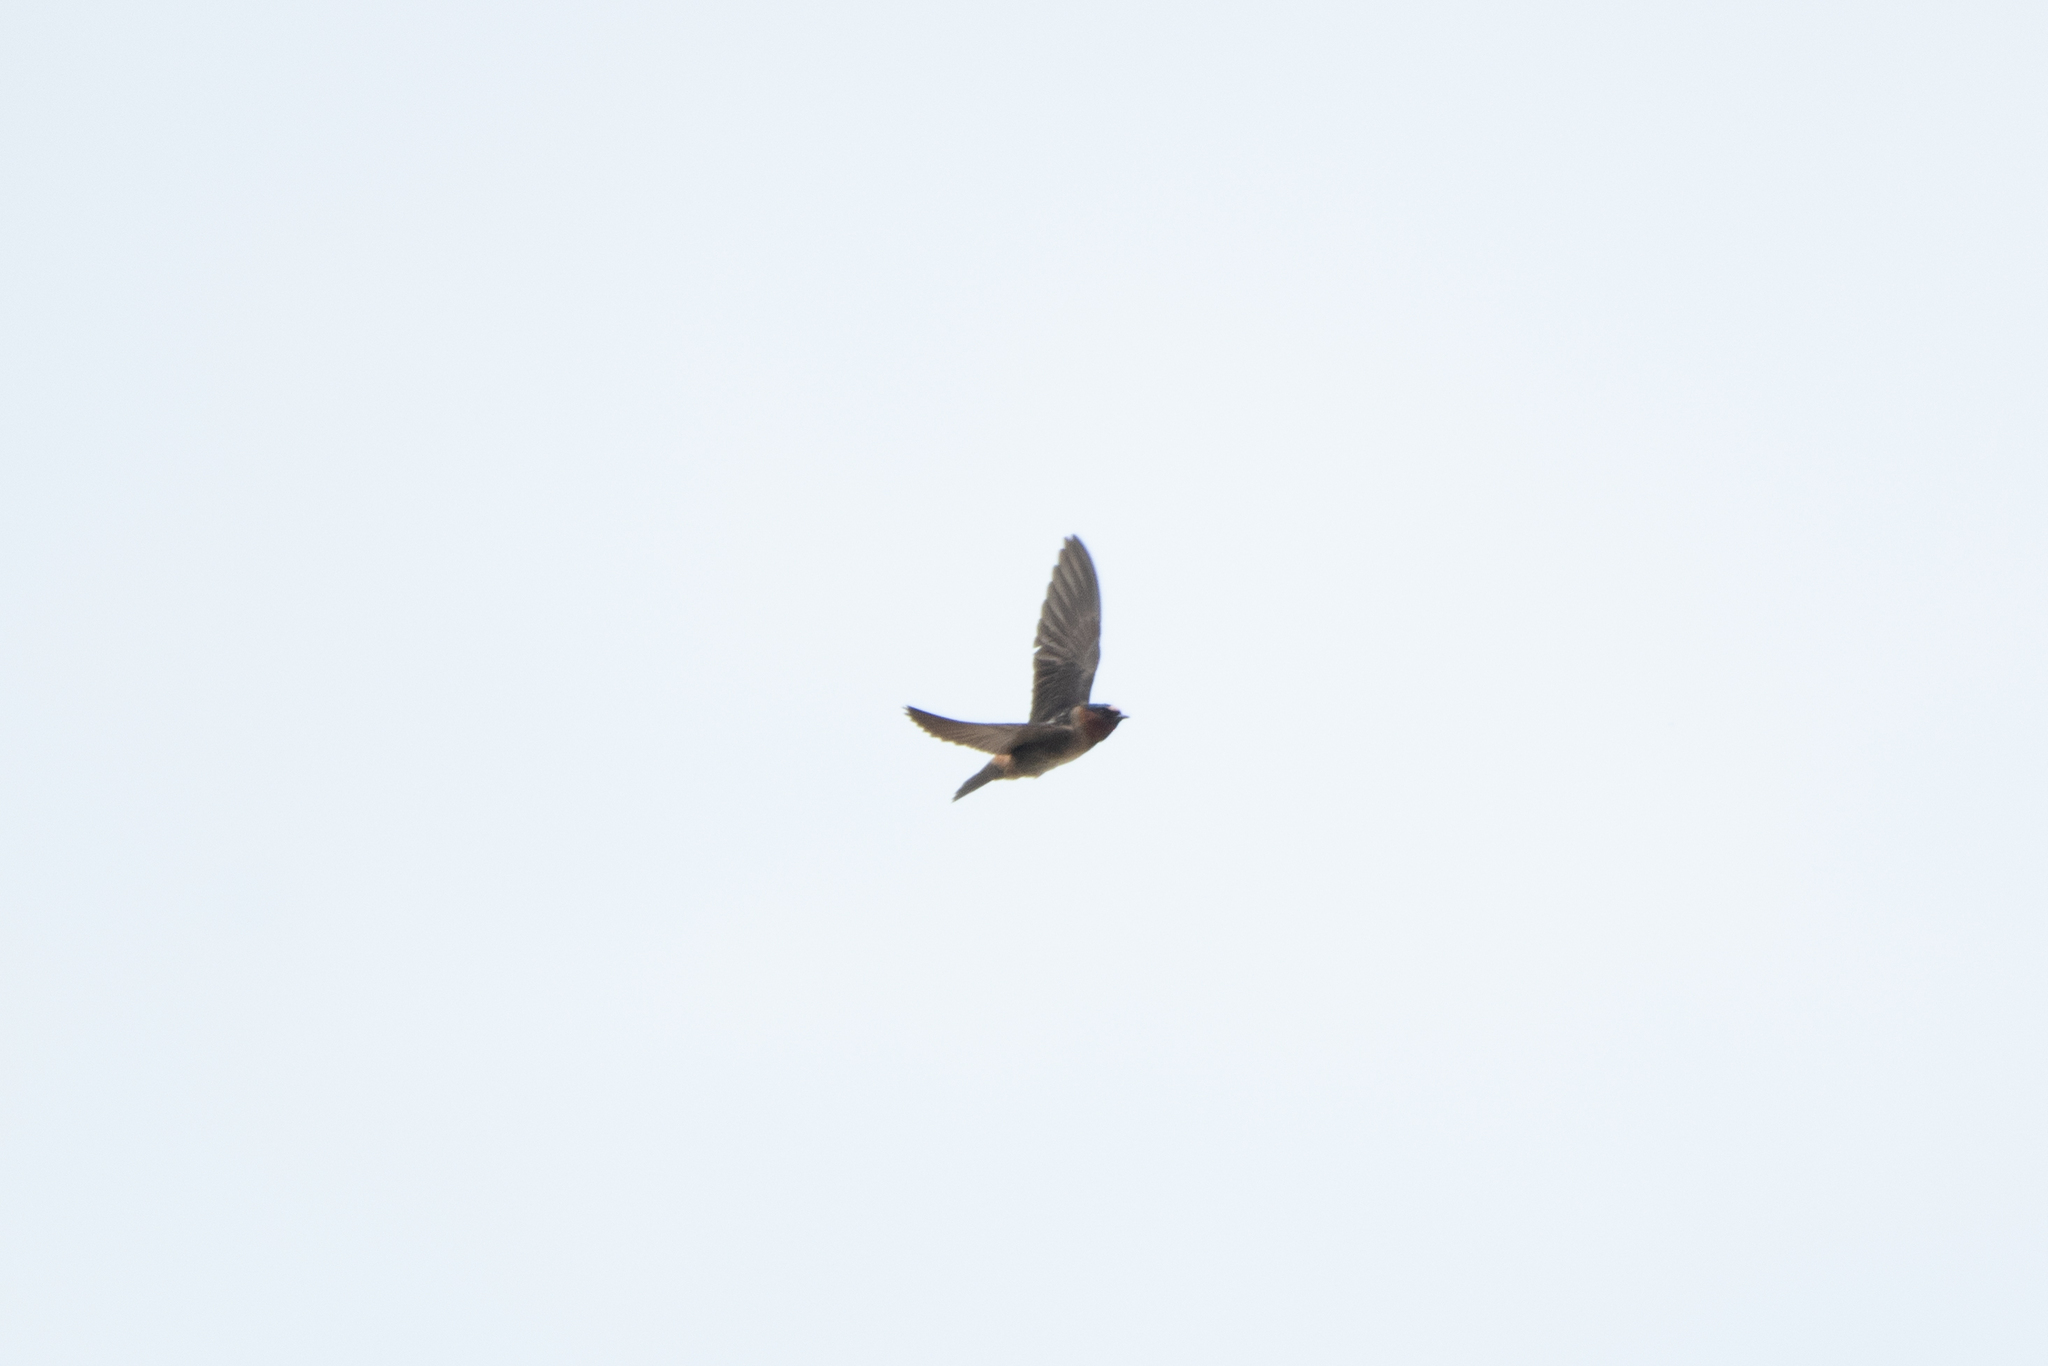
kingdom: Animalia
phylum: Chordata
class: Aves
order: Passeriformes
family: Hirundinidae
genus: Petrochelidon
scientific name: Petrochelidon pyrrhonota
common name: American cliff swallow
